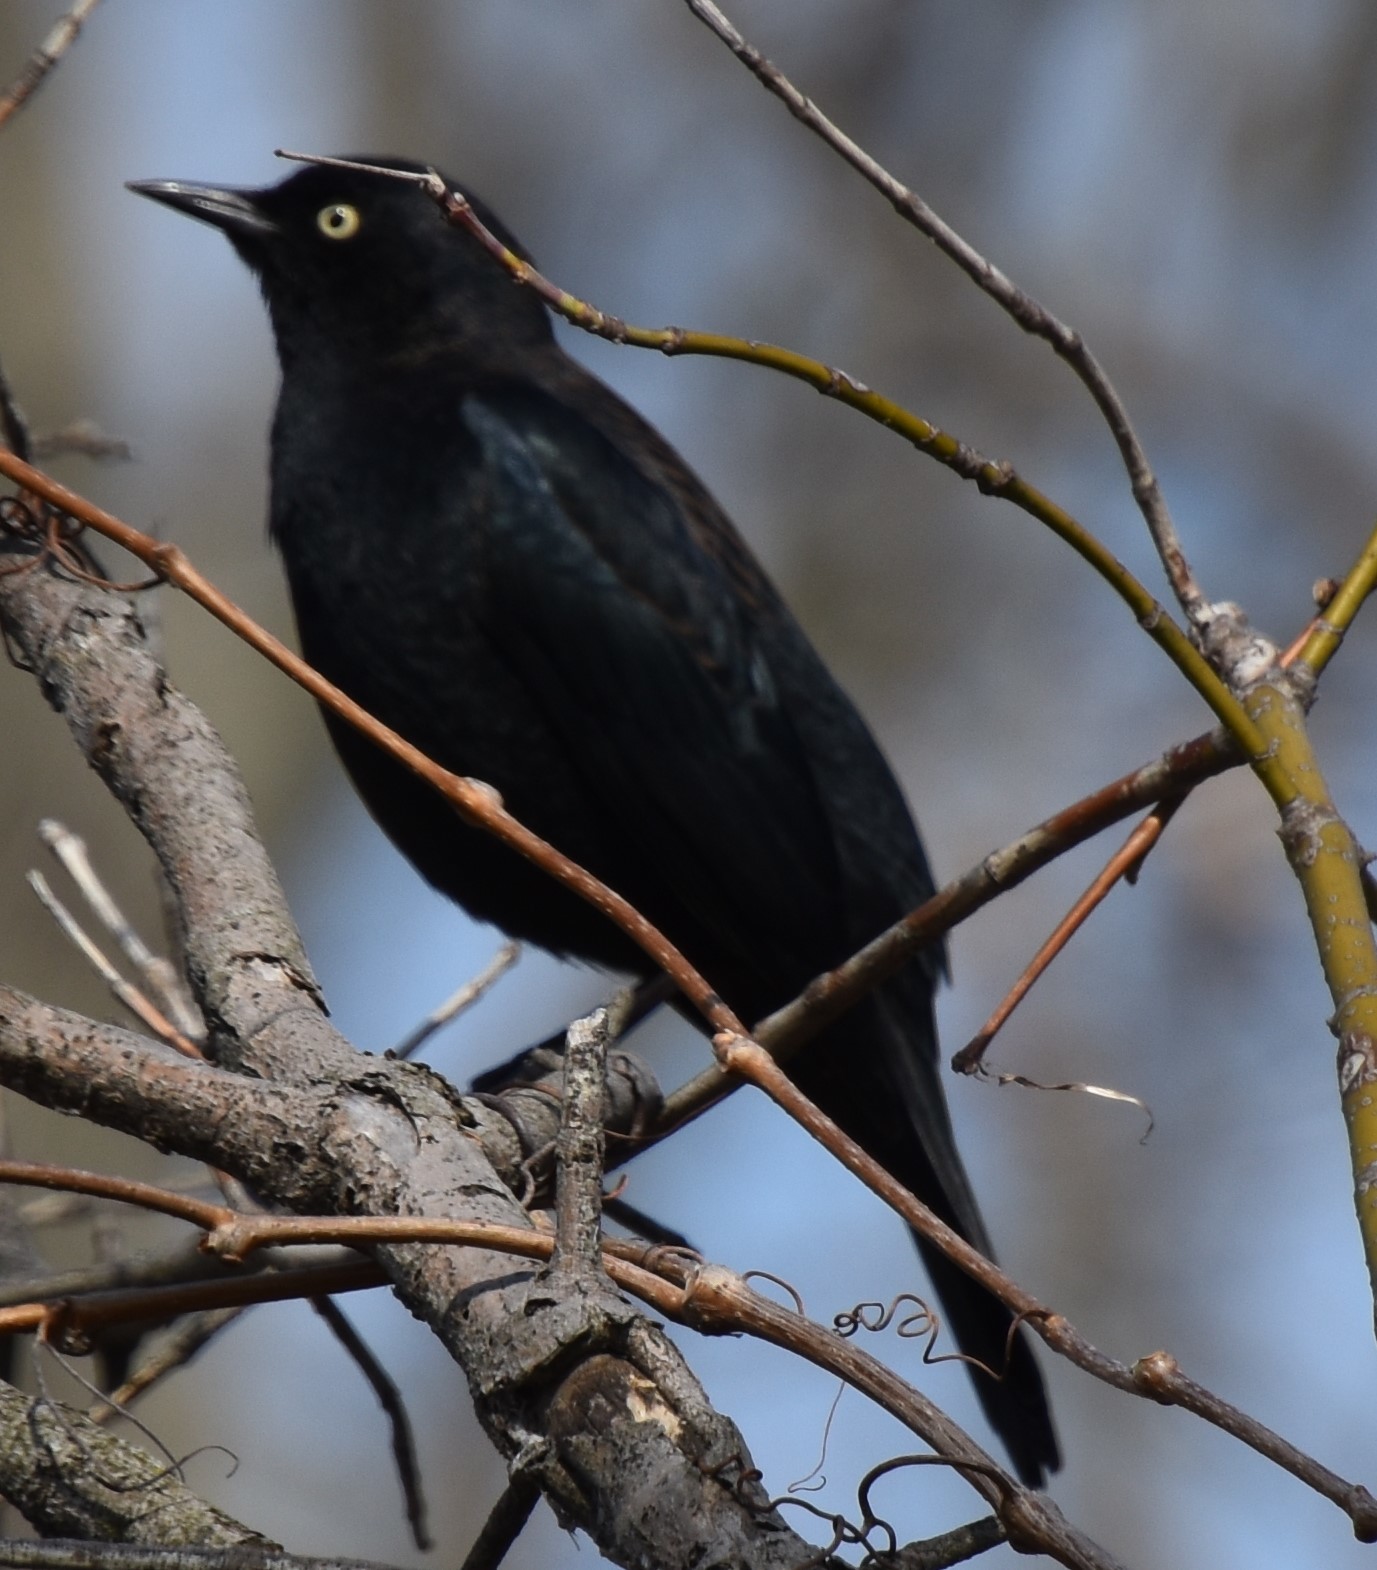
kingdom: Animalia
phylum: Chordata
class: Aves
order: Passeriformes
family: Icteridae
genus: Euphagus
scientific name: Euphagus carolinus
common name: Rusty blackbird
